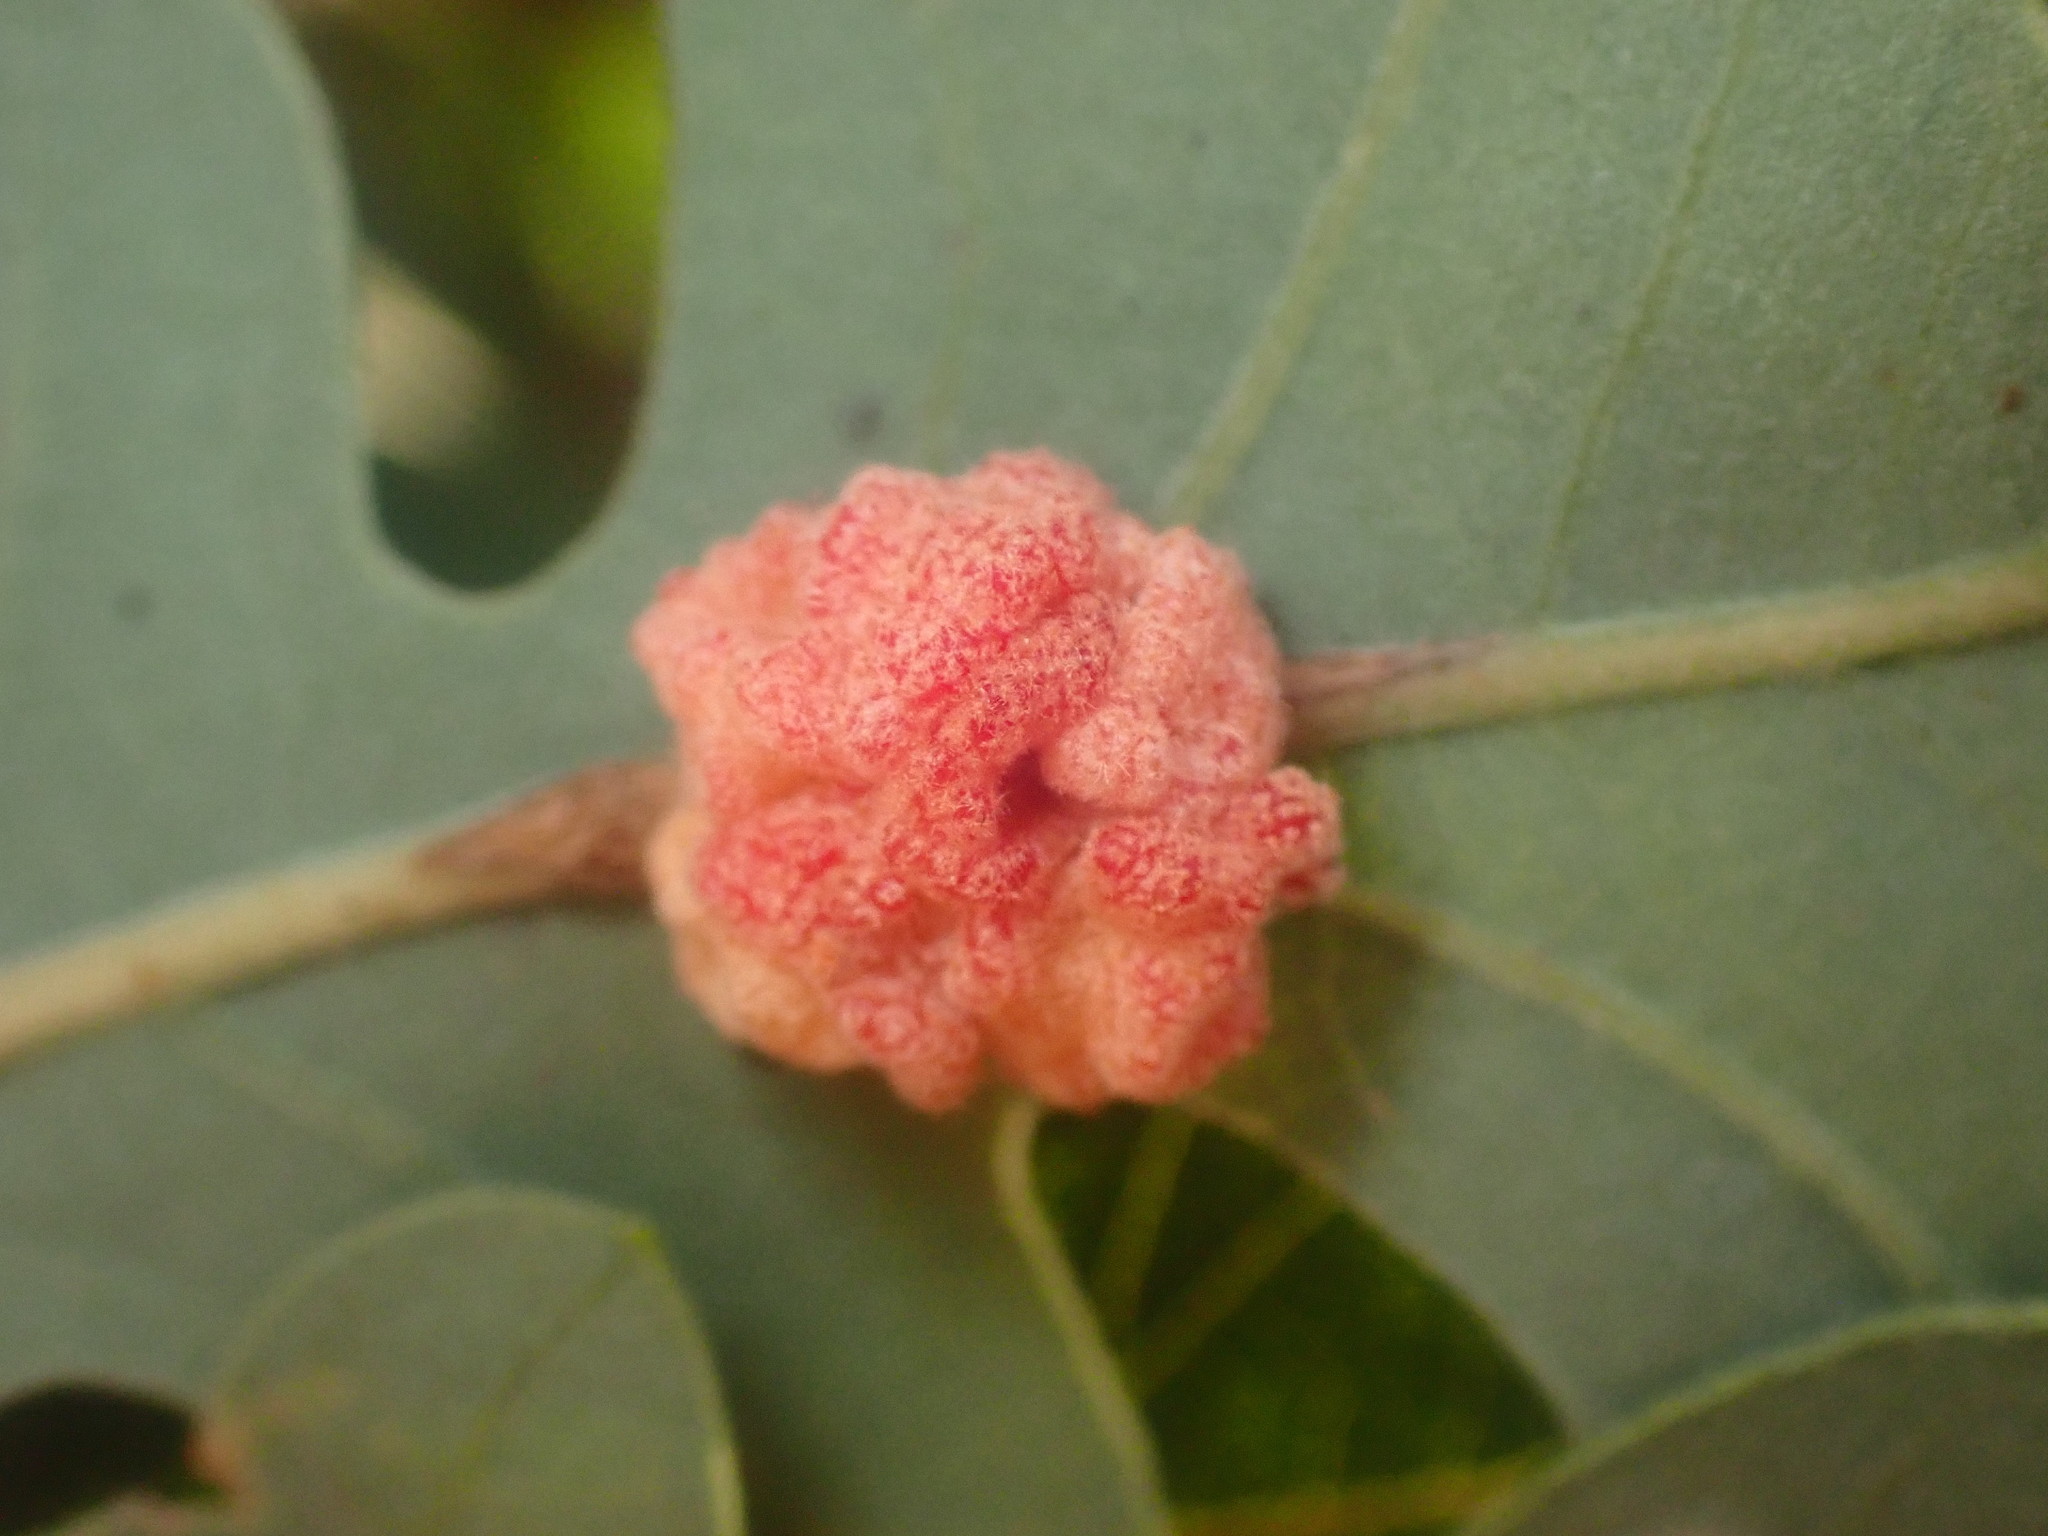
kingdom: Animalia
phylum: Arthropoda
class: Insecta
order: Hymenoptera
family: Cynipidae
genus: Andricus
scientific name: Andricus
